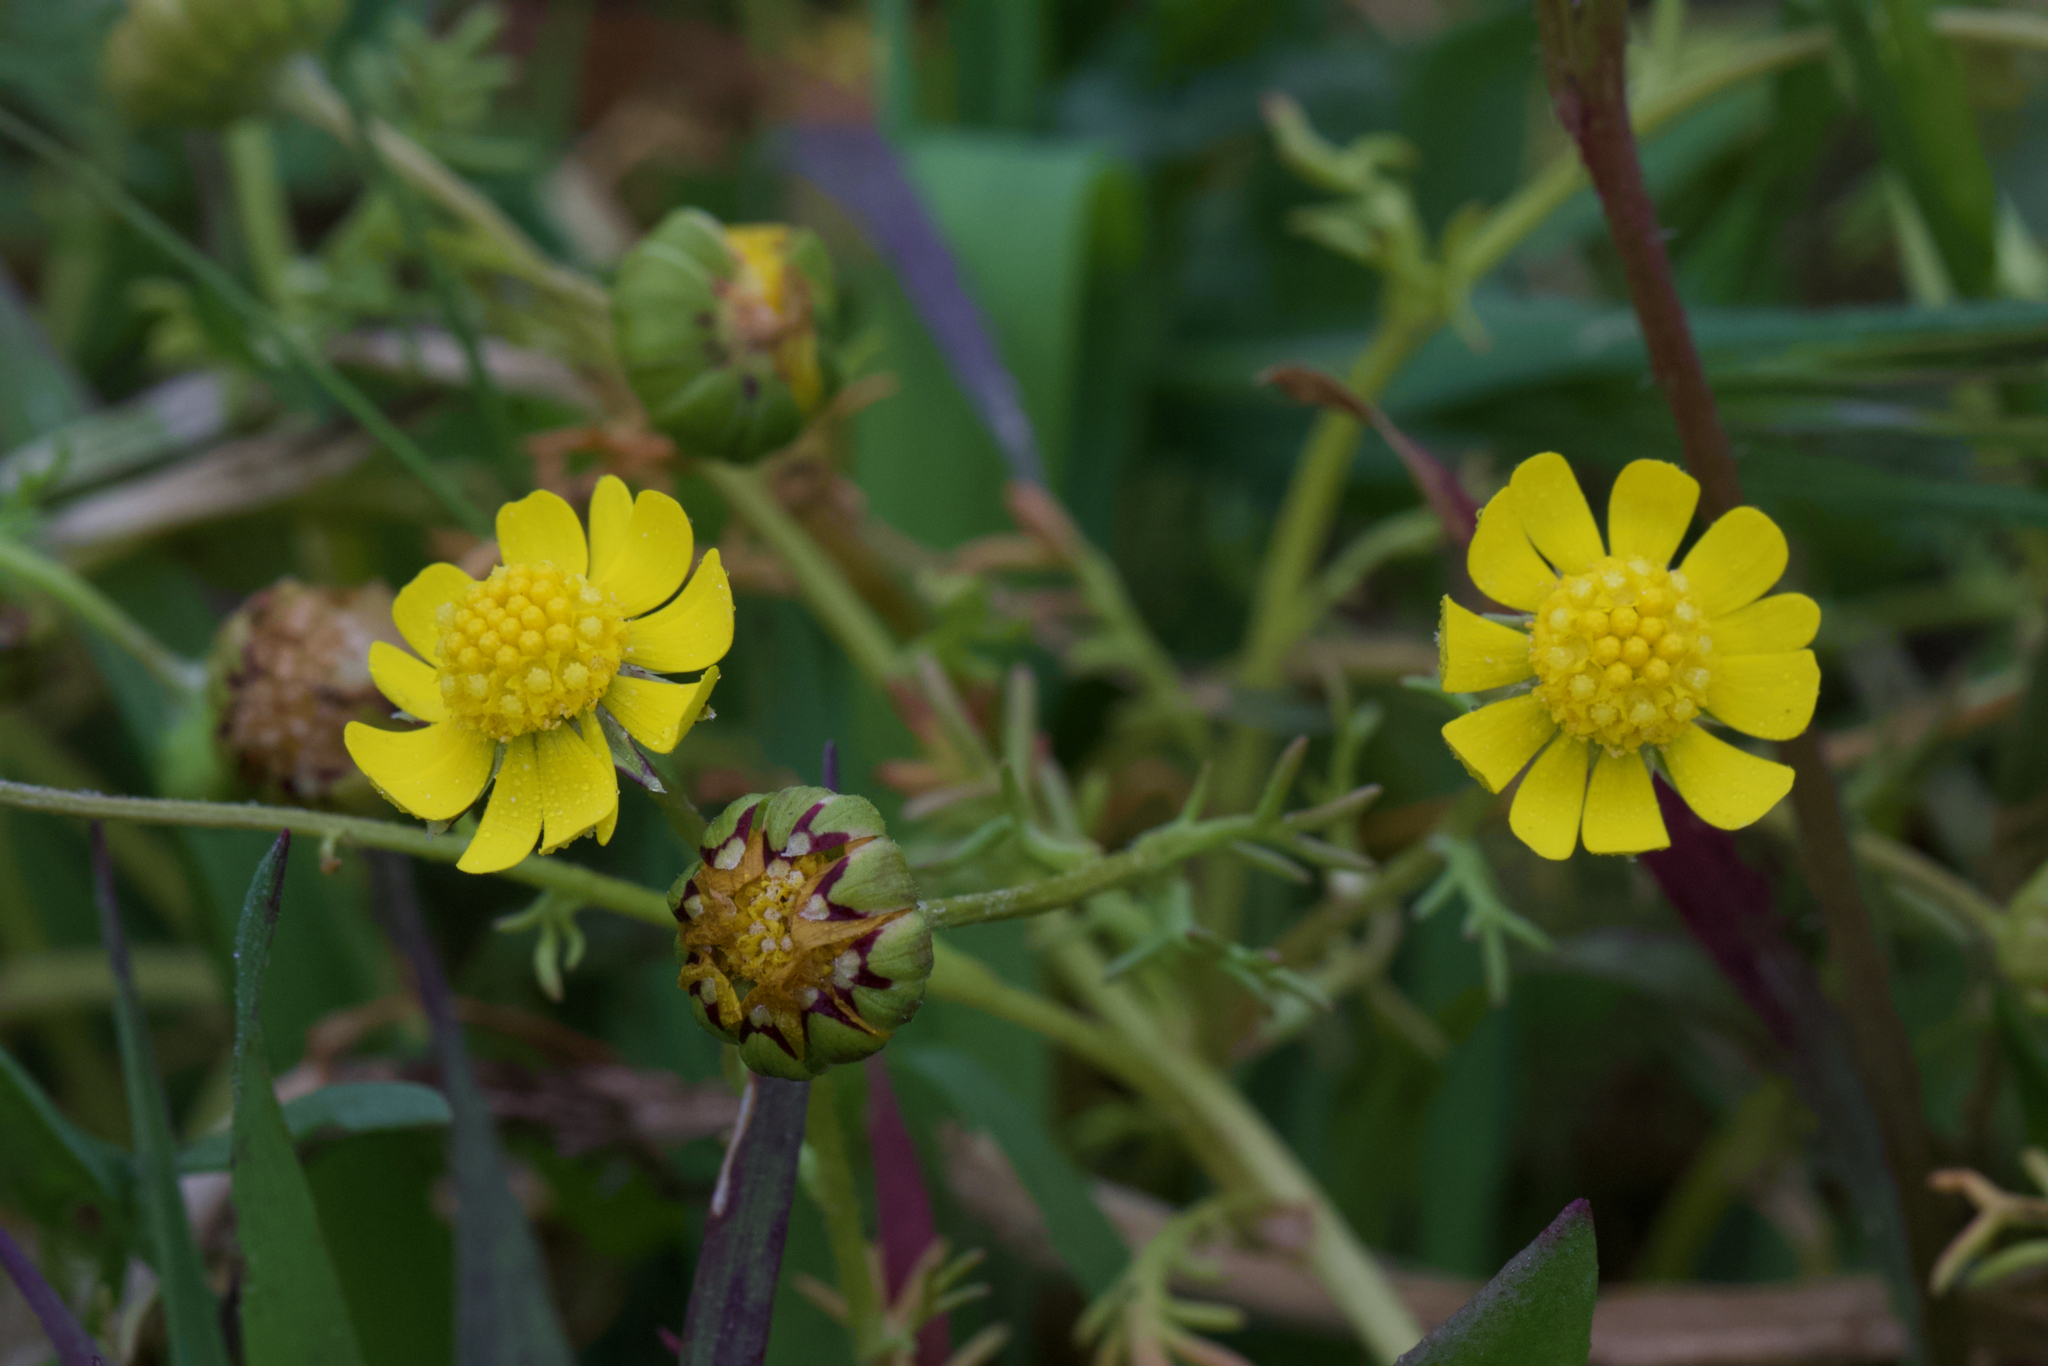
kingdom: Plantae
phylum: Tracheophyta
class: Magnoliopsida
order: Asterales
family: Asteraceae
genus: Blennosperma
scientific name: Blennosperma nanum
